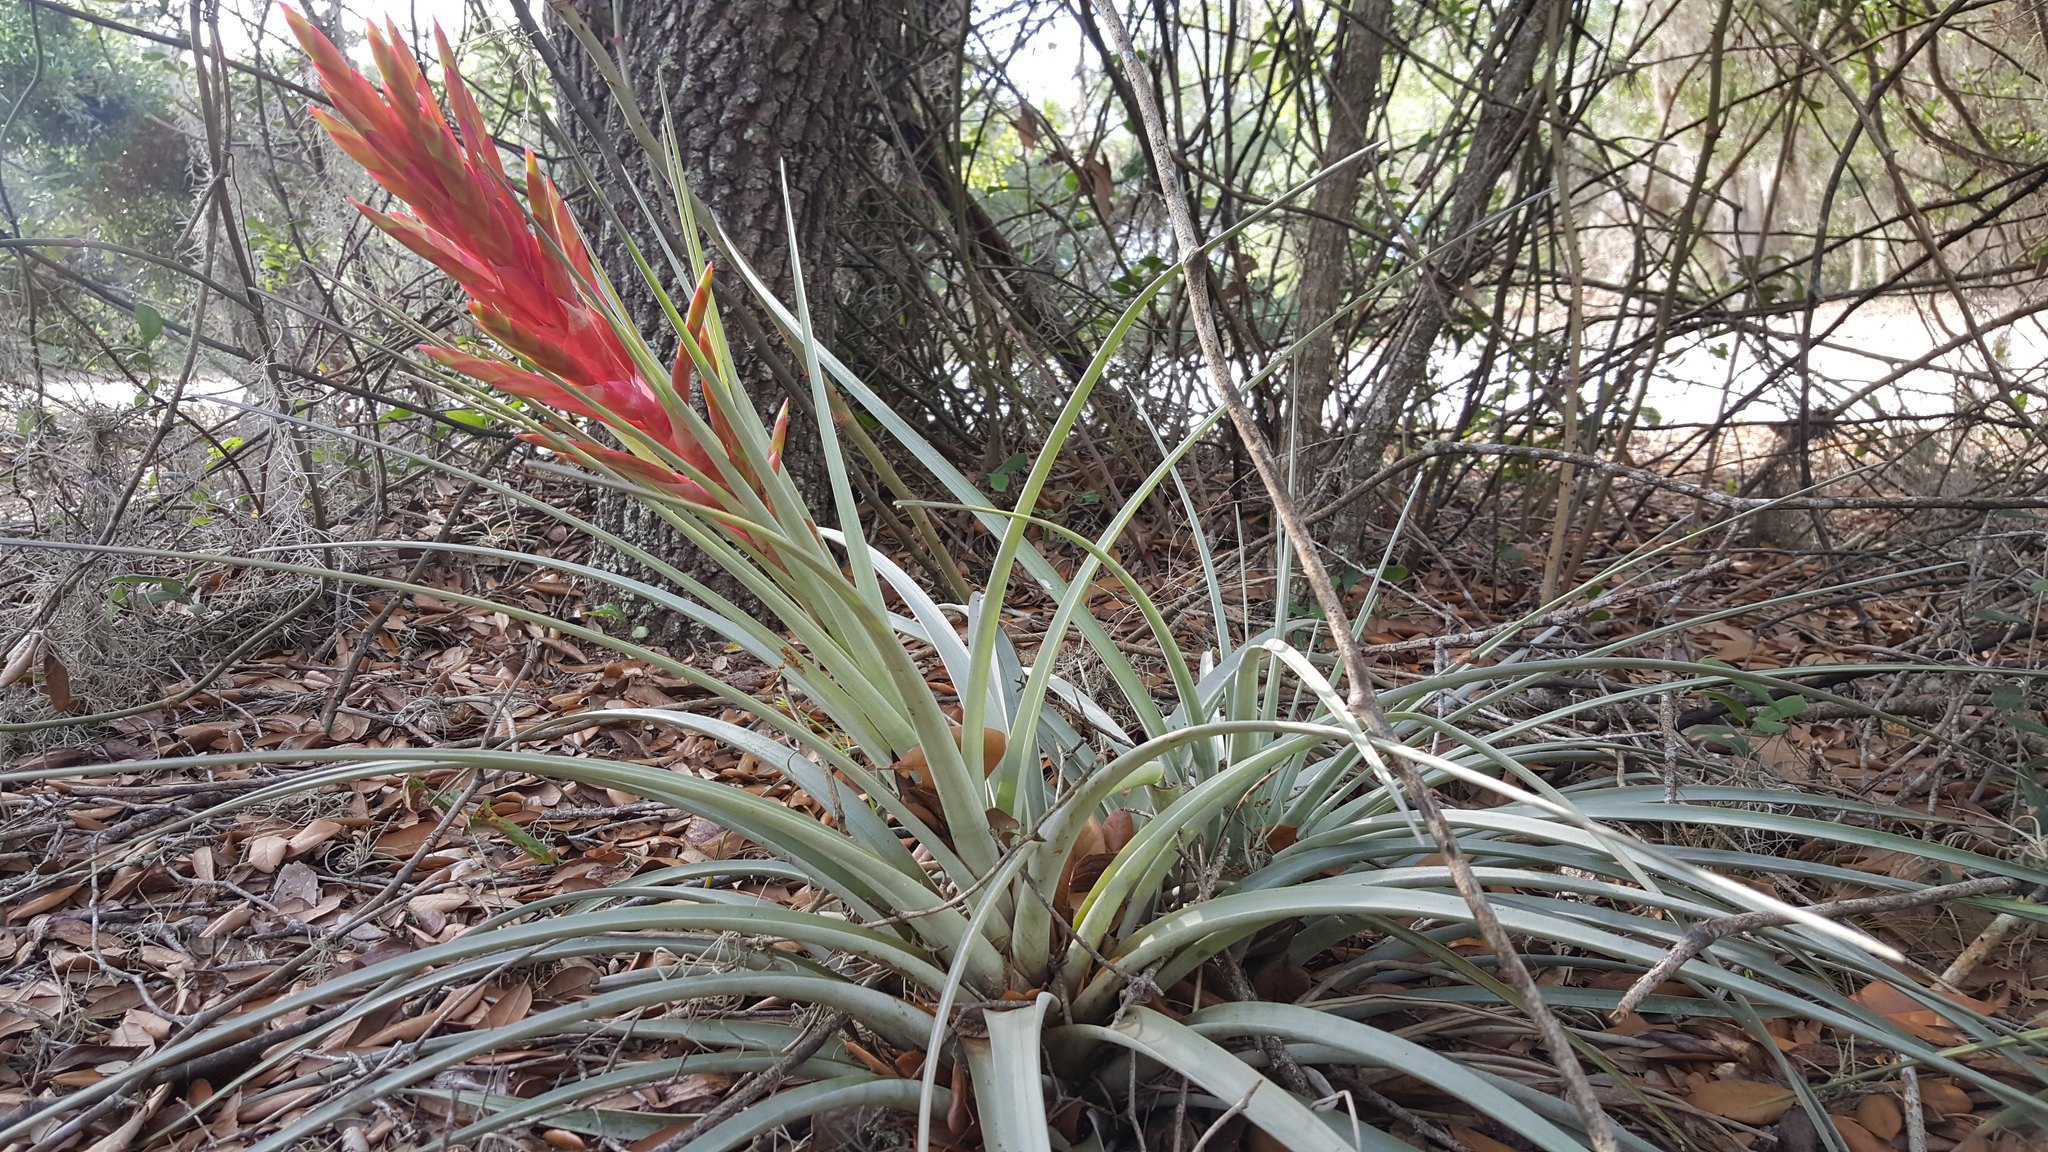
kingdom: Plantae
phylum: Tracheophyta
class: Liliopsida
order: Poales
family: Bromeliaceae
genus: Tillandsia
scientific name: Tillandsia fasciculata
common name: Giant airplant
